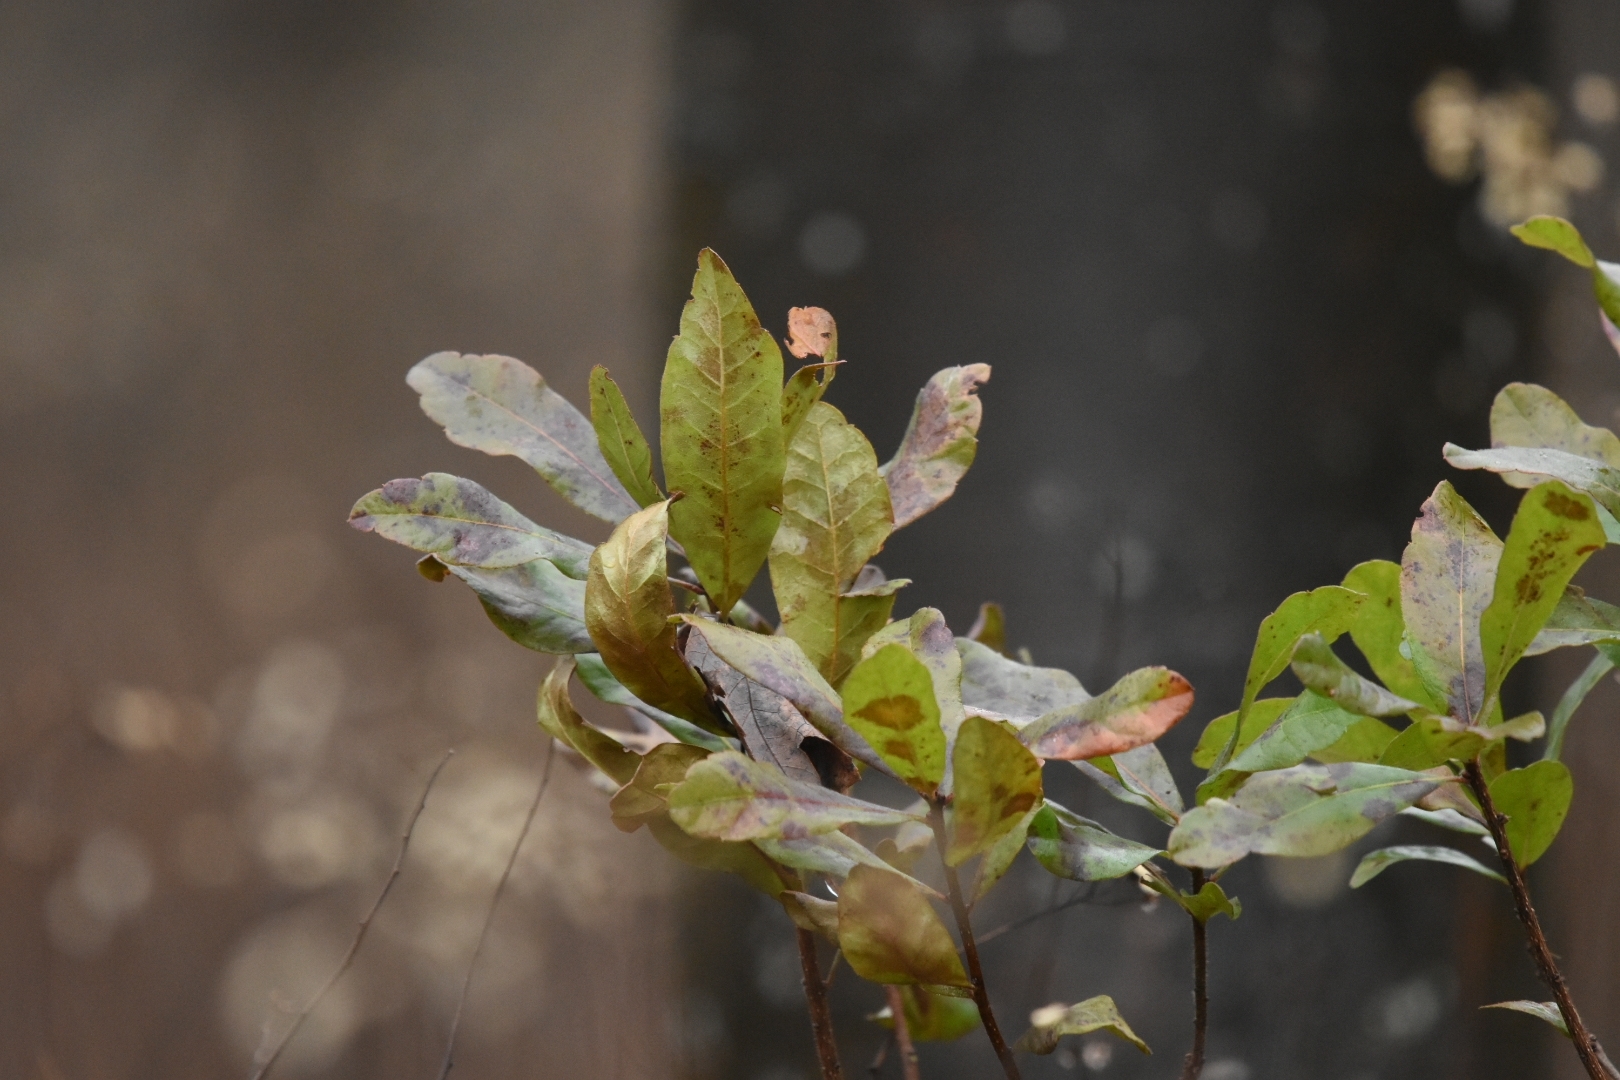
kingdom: Plantae
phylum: Tracheophyta
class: Magnoliopsida
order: Fagales
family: Myricaceae
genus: Morella
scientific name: Morella pensylvanica
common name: Northern bayberry
